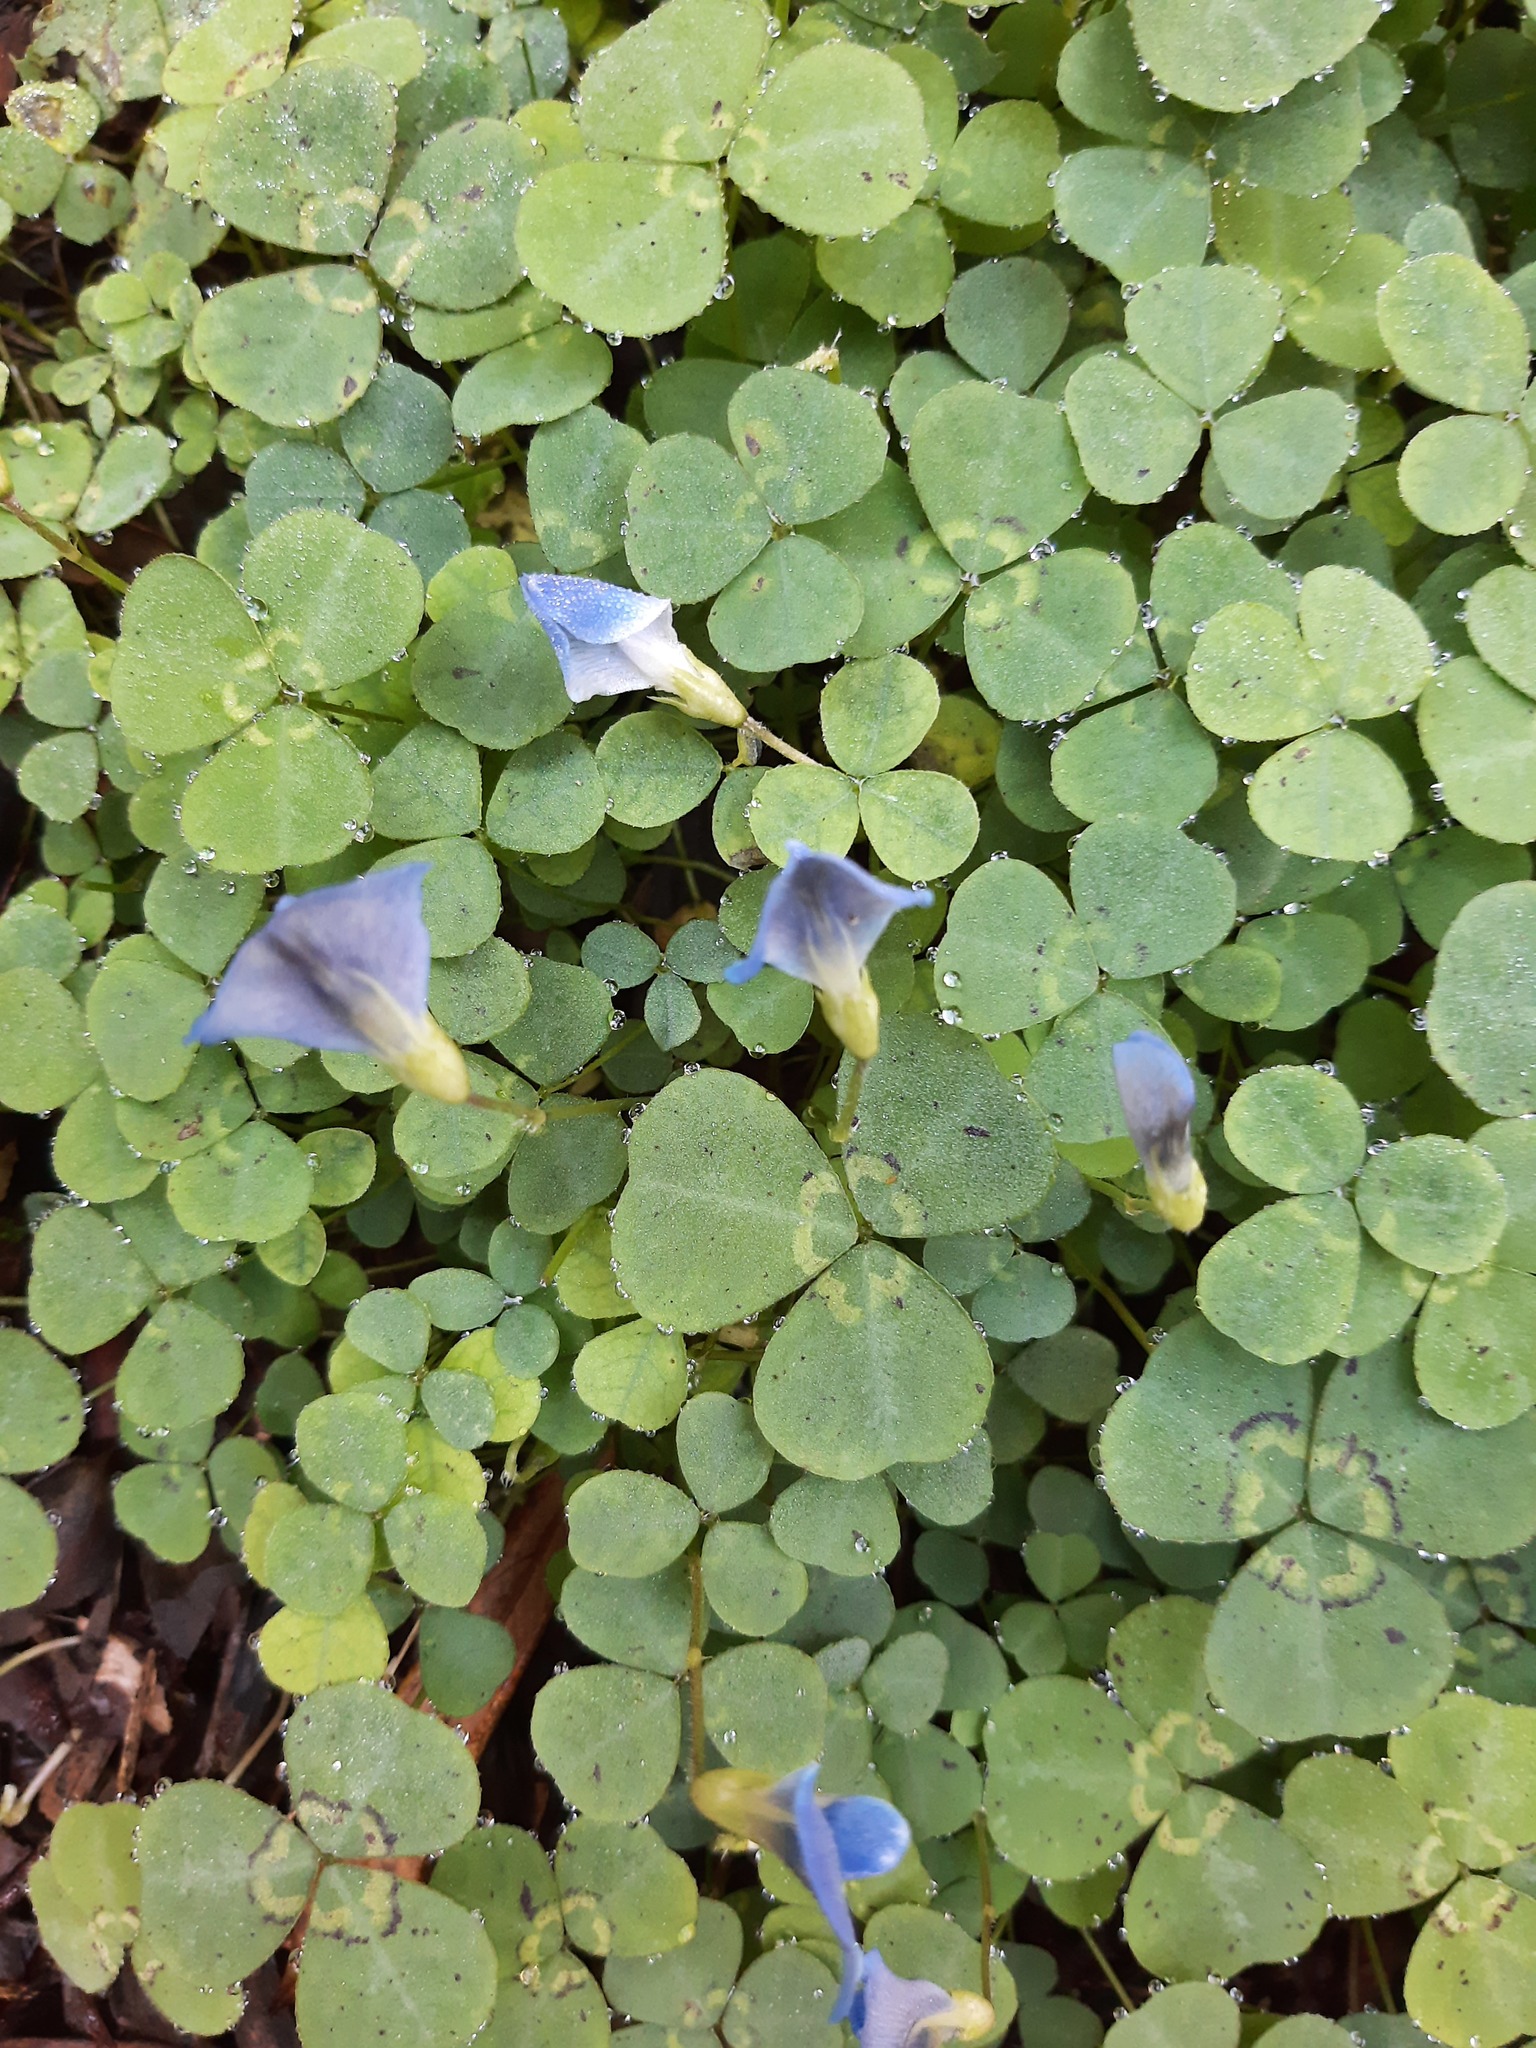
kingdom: Plantae
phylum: Tracheophyta
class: Magnoliopsida
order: Fabales
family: Fabaceae
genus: Parochetus
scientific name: Parochetus communis
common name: Blue oxalis
